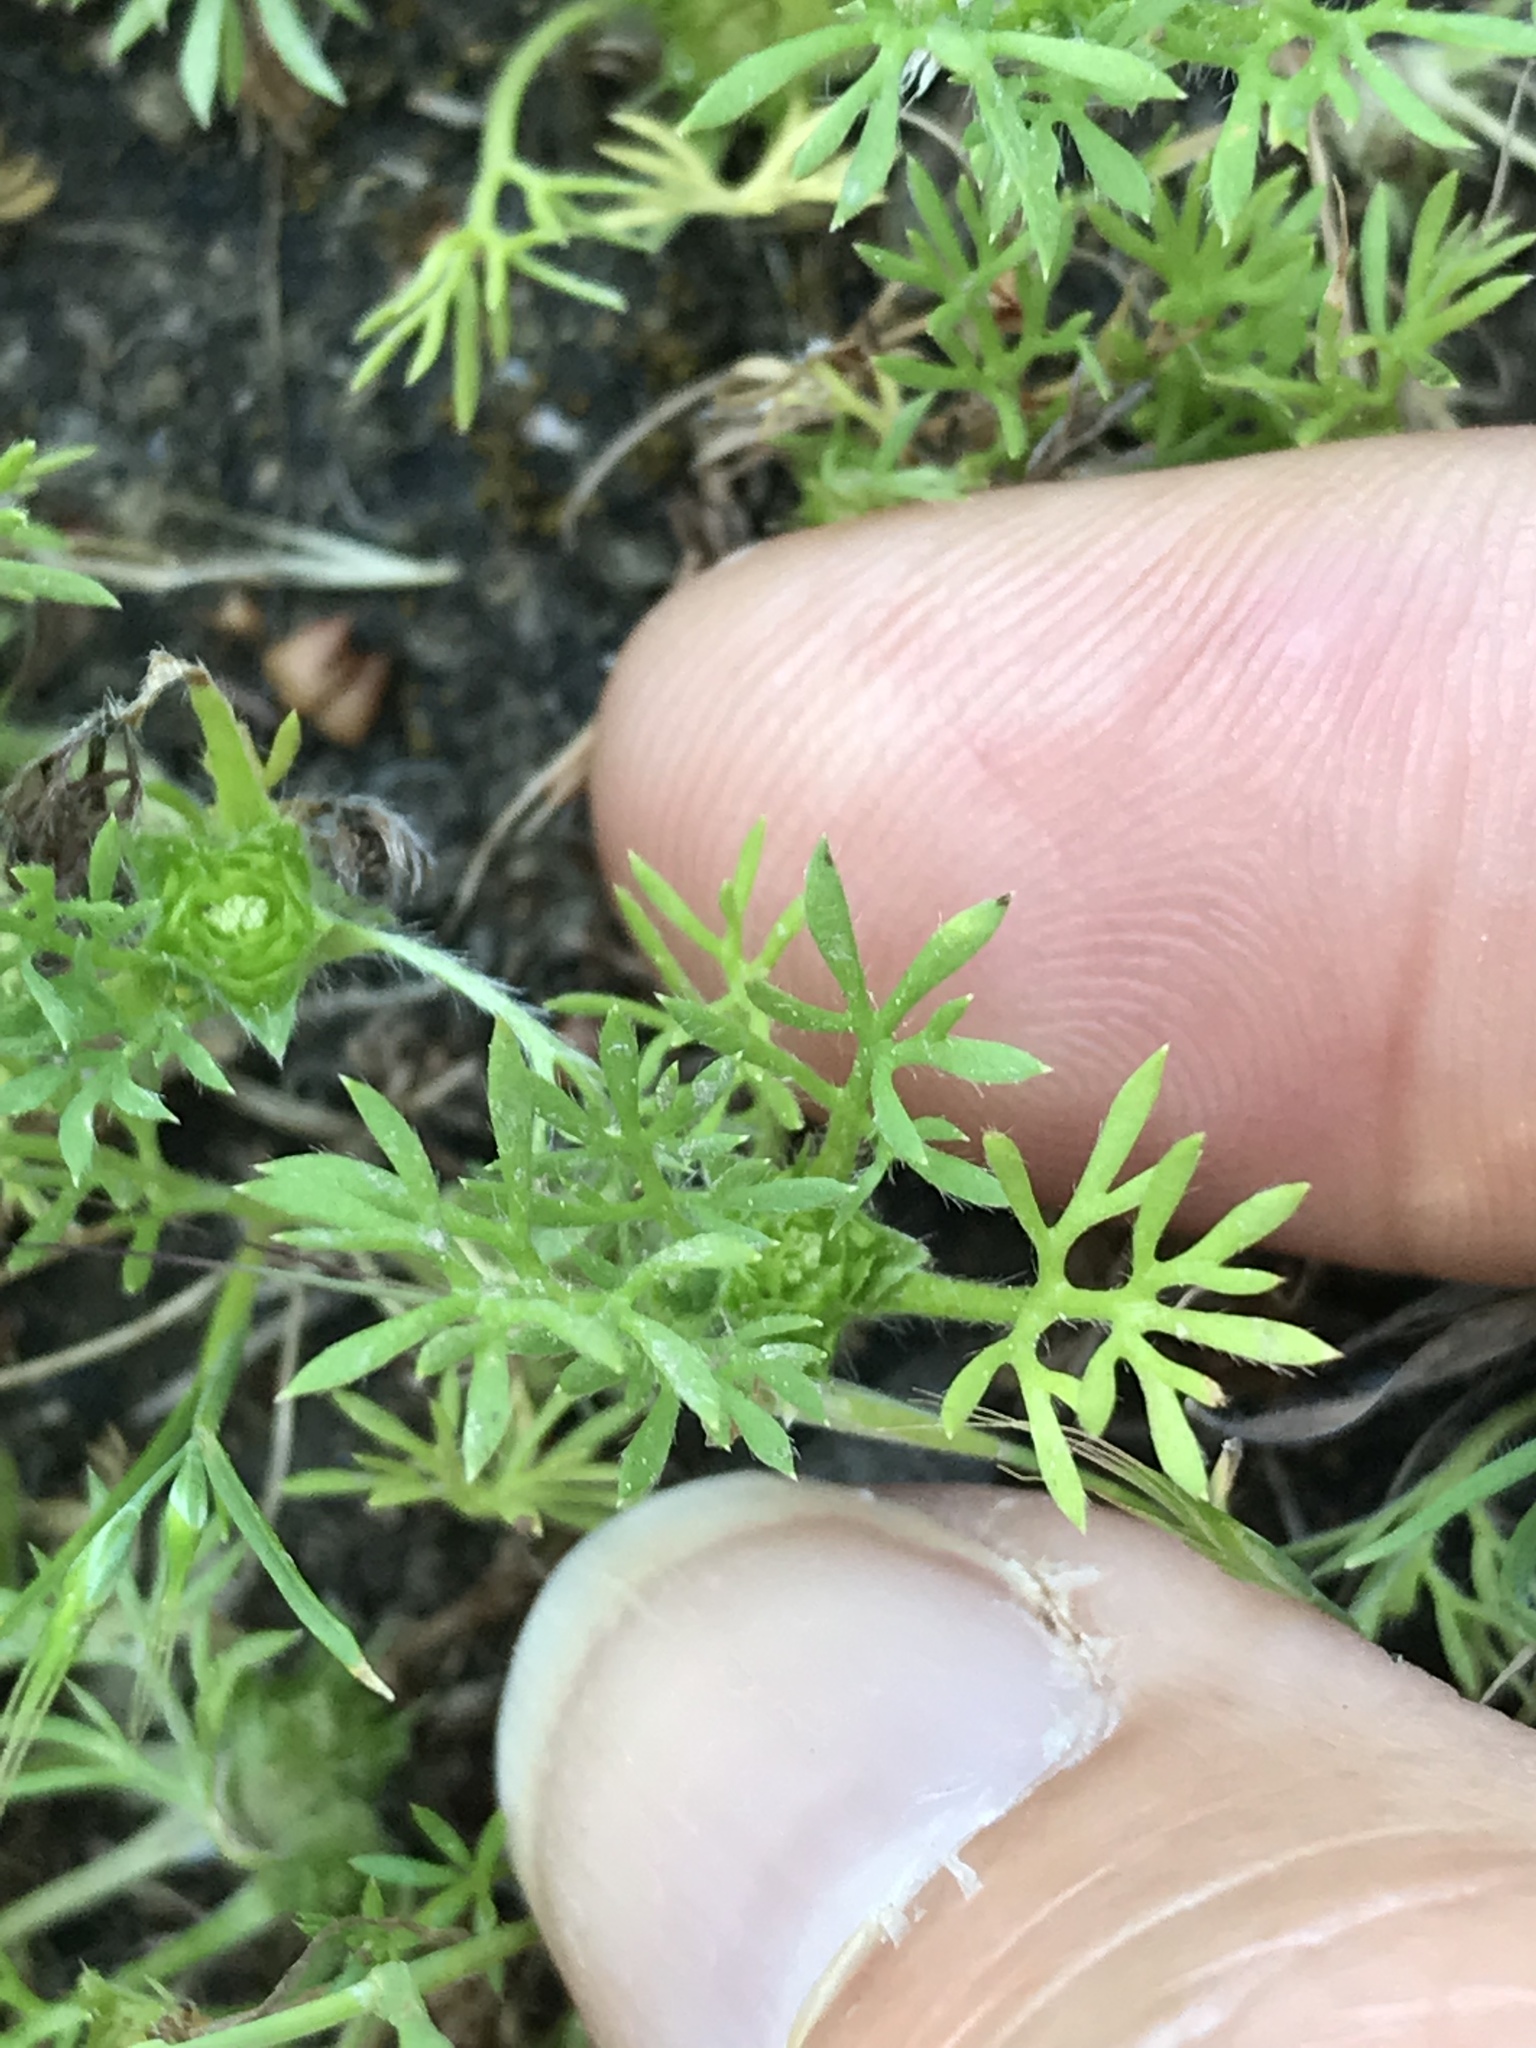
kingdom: Plantae
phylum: Tracheophyta
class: Magnoliopsida
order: Asterales
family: Asteraceae
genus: Soliva
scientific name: Soliva sessilis
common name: Field burrweed
